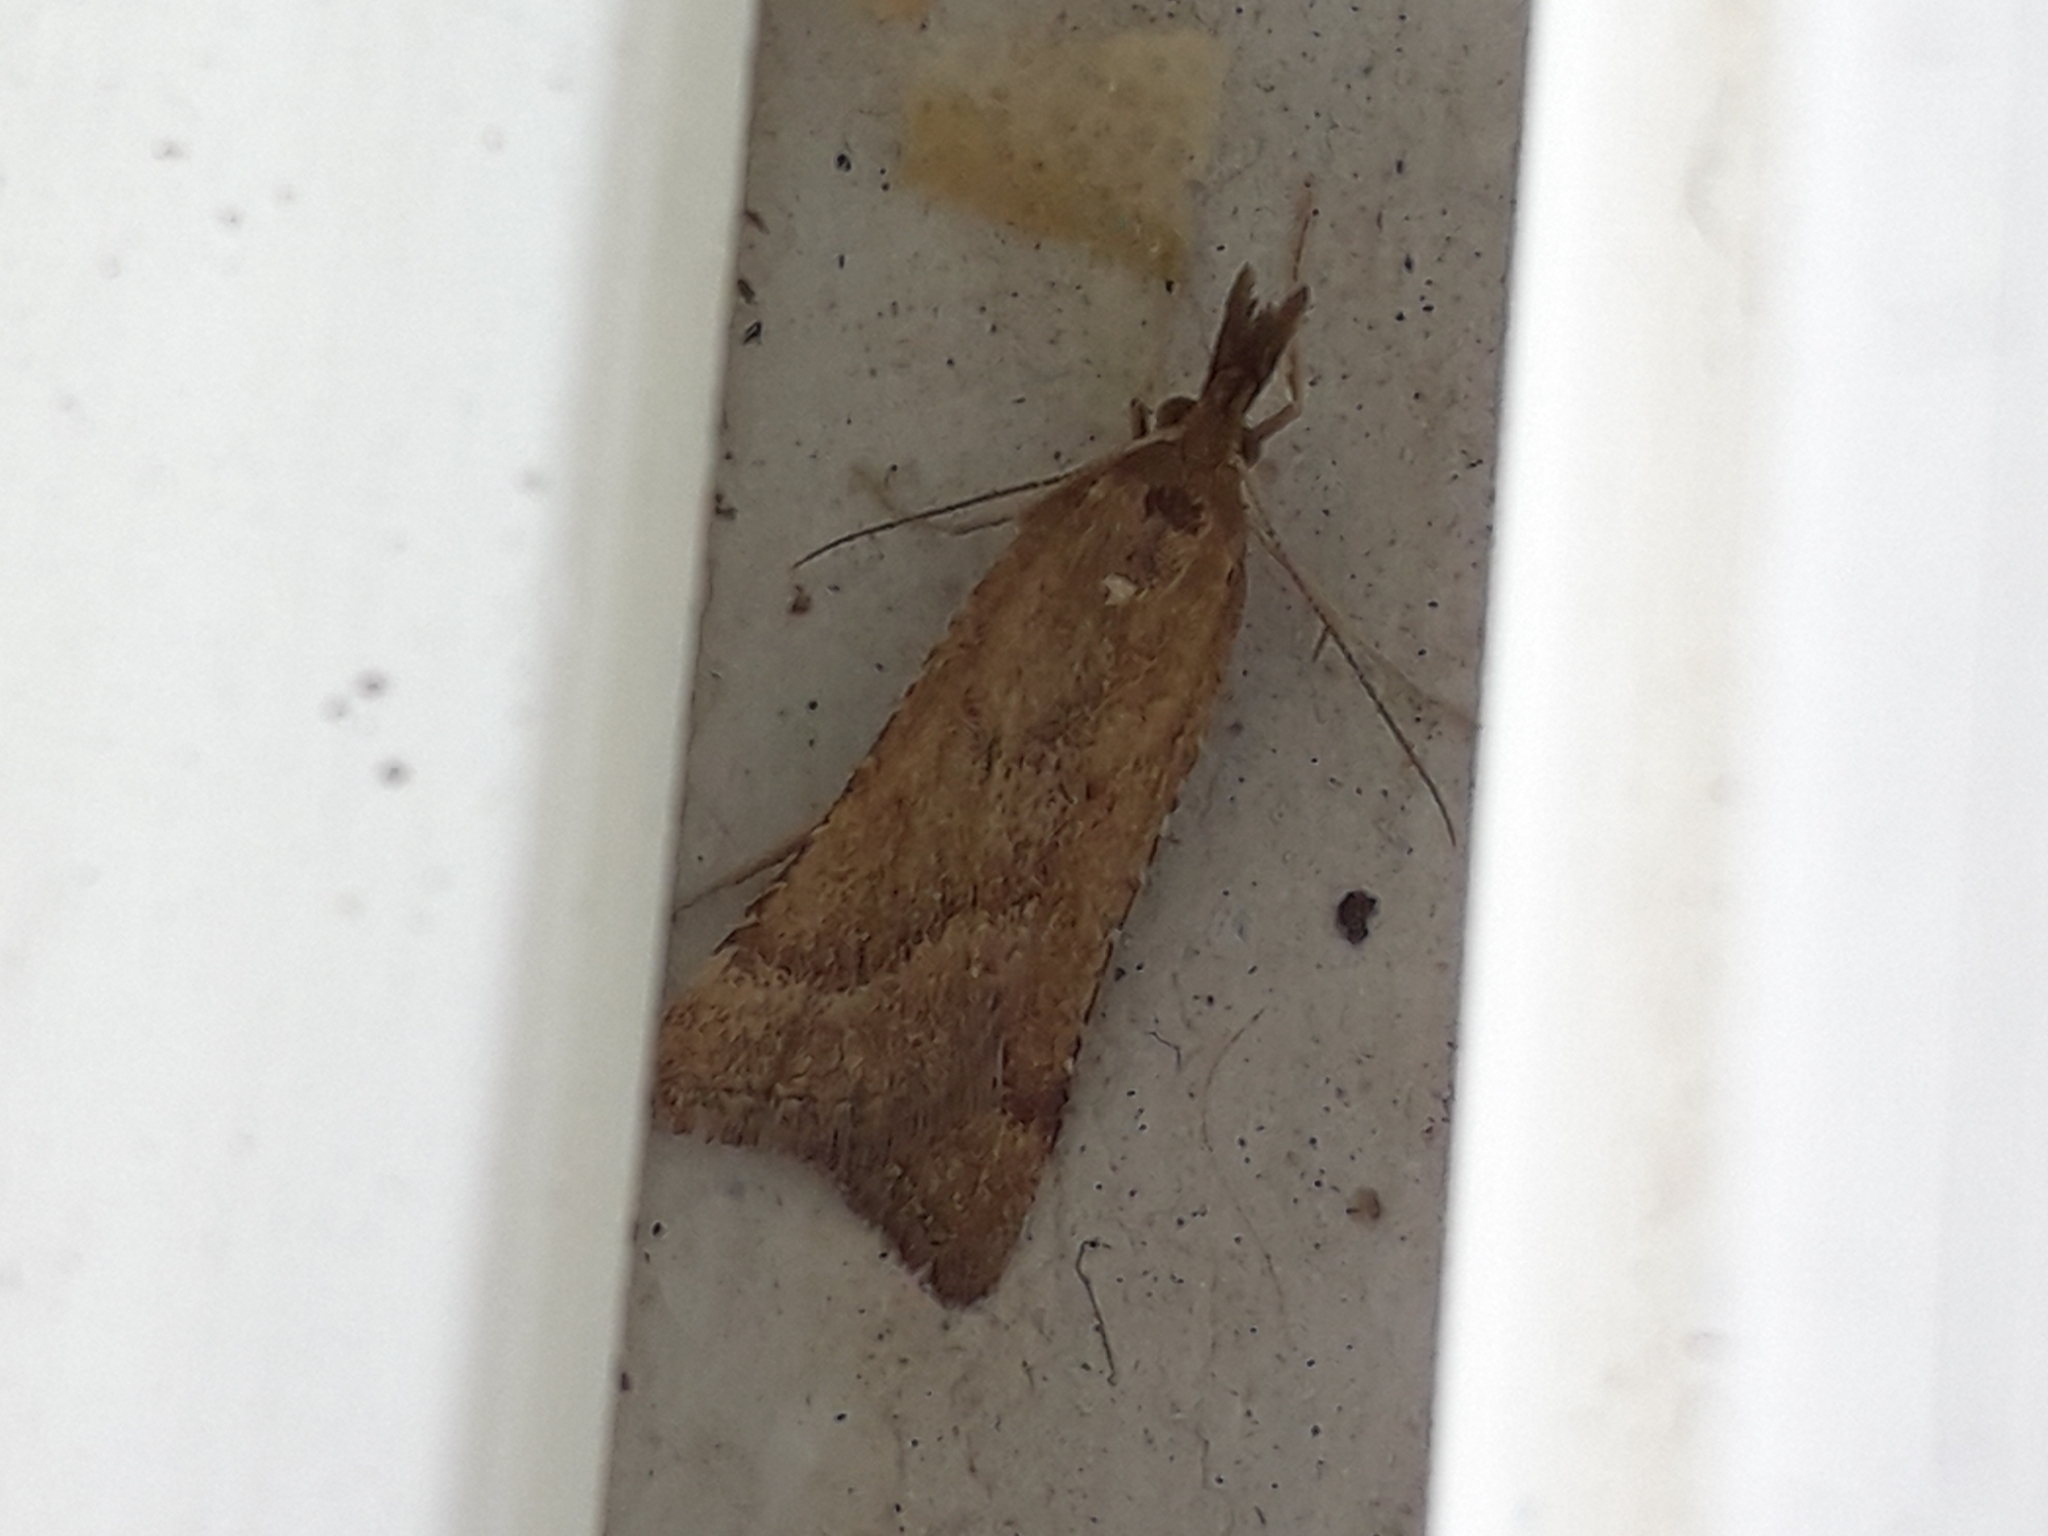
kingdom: Animalia
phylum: Arthropoda
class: Insecta
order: Lepidoptera
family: Pyralidae
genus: Synaphe
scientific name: Synaphe punctalis
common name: Long-legged tabby
